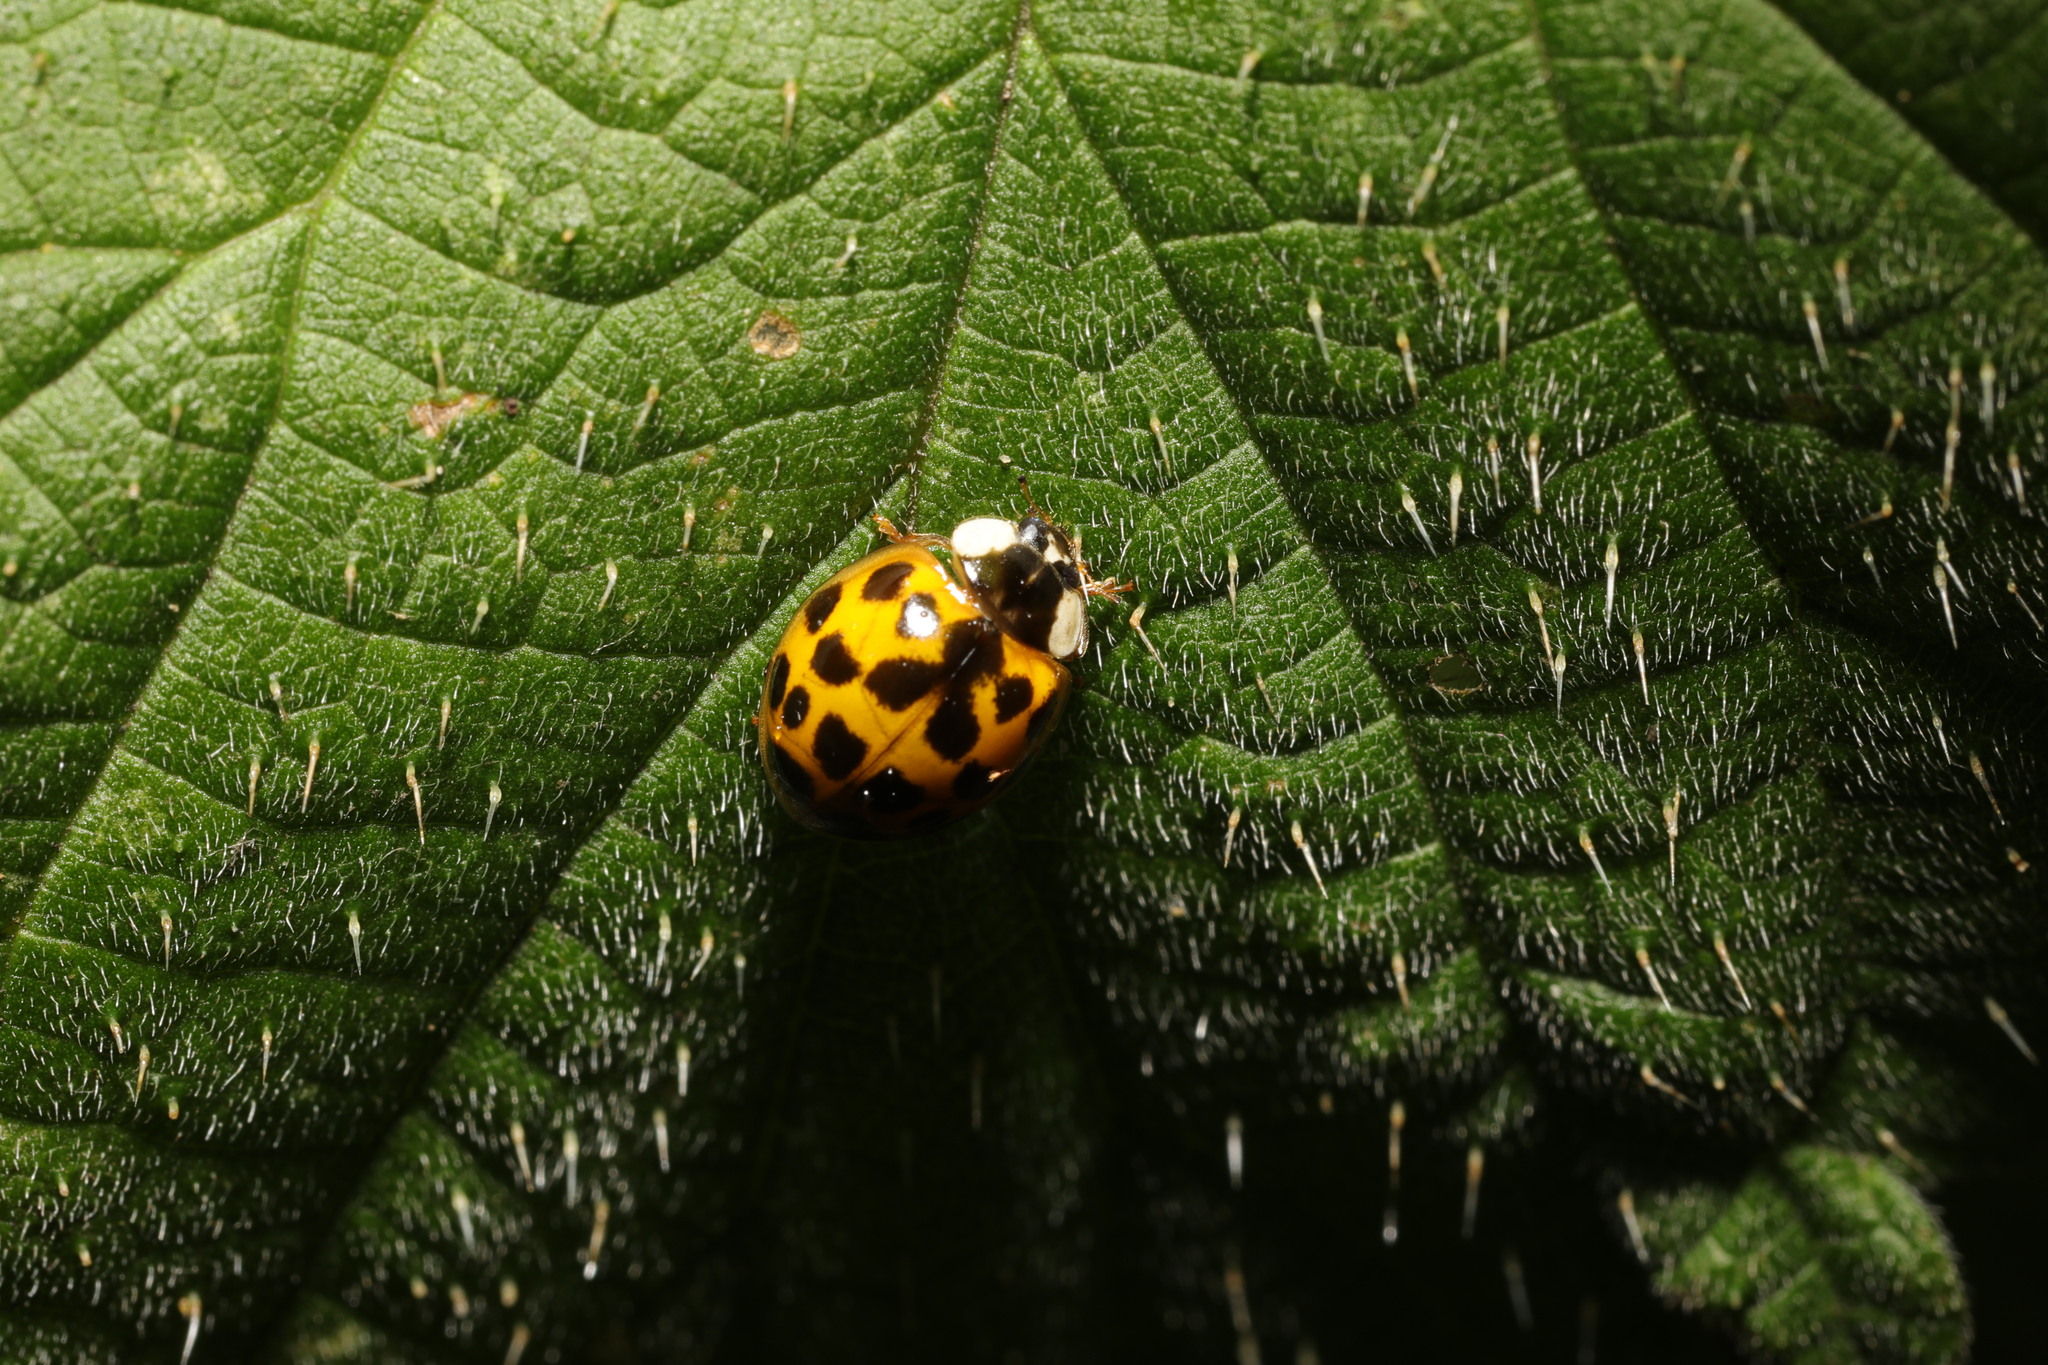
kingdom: Animalia
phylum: Arthropoda
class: Insecta
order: Coleoptera
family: Coccinellidae
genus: Harmonia
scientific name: Harmonia axyridis
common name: Harlequin ladybird
